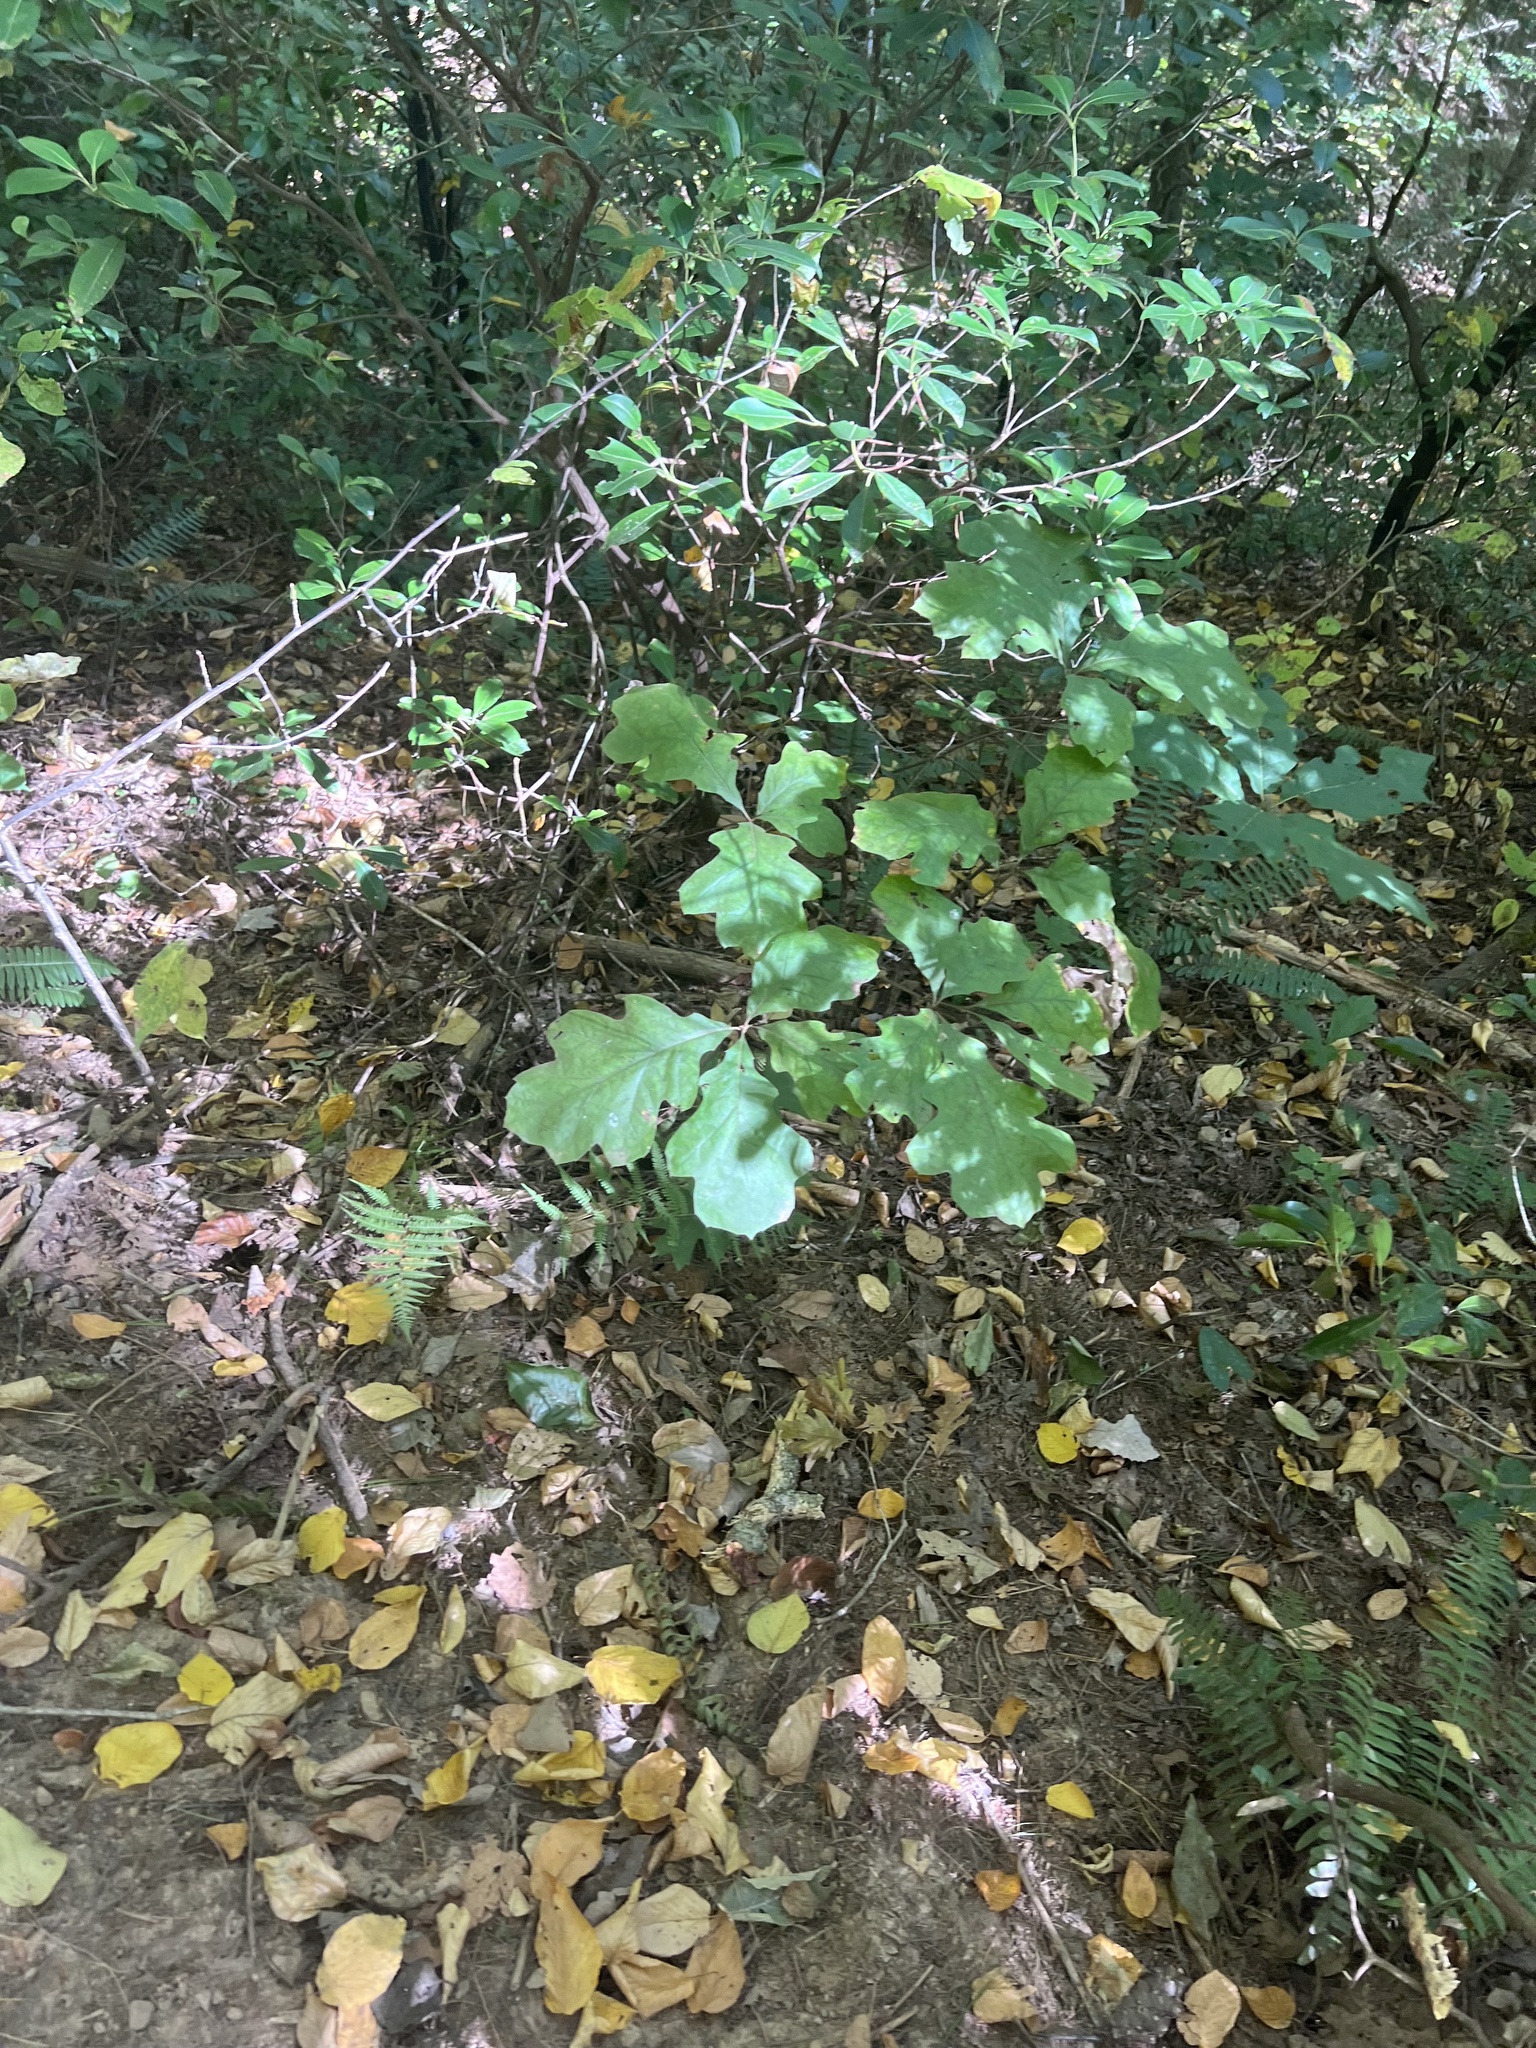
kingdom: Plantae
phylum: Tracheophyta
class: Magnoliopsida
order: Fagales
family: Fagaceae
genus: Quercus
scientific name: Quercus velutina
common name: Black oak
